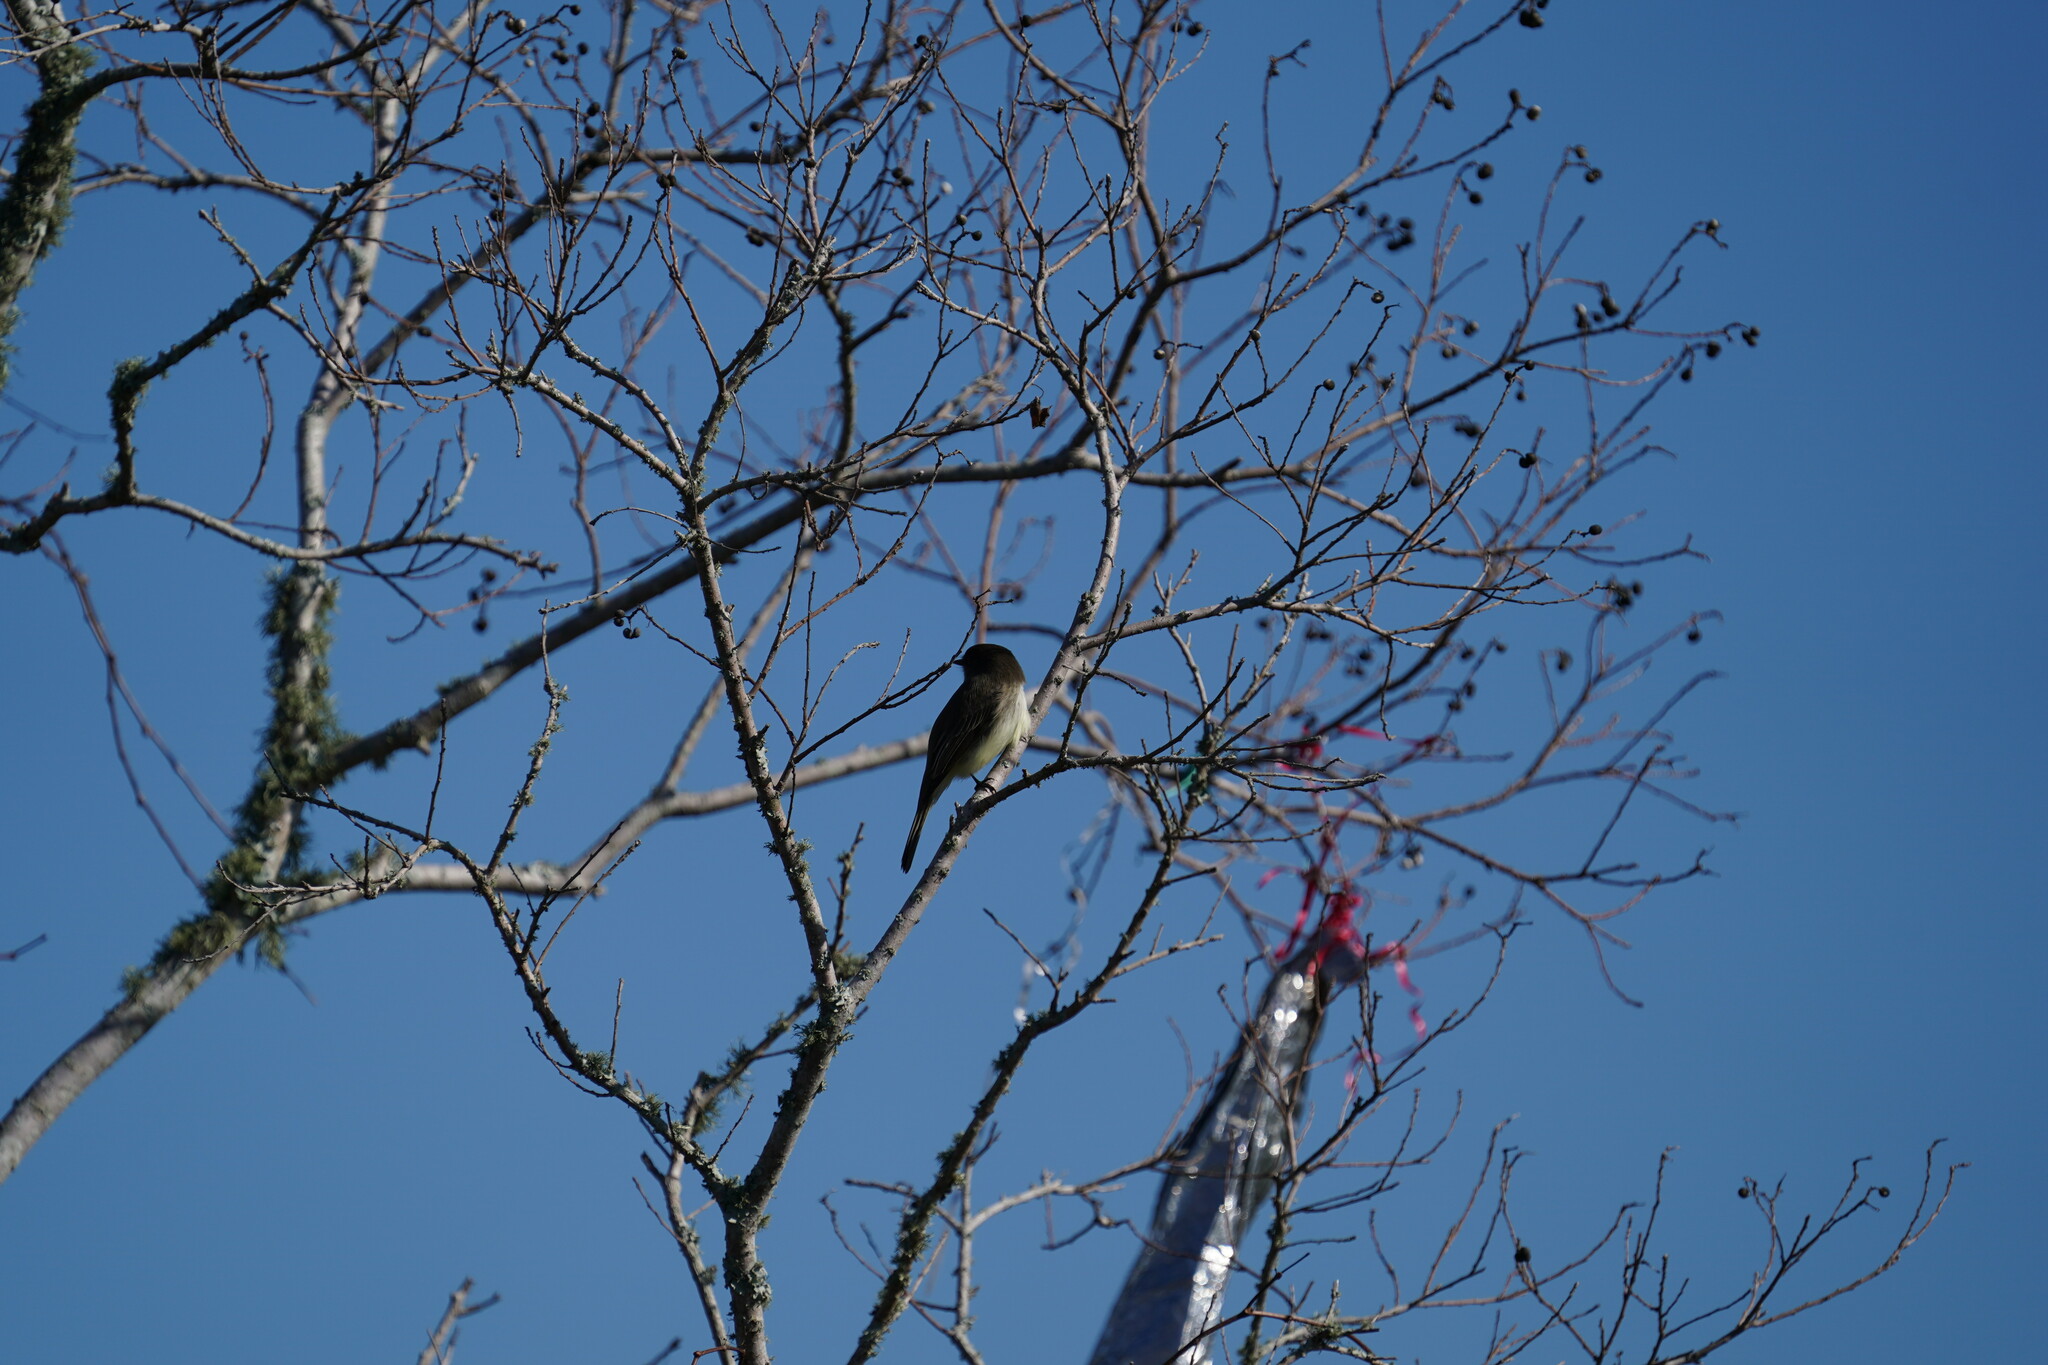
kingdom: Animalia
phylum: Chordata
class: Aves
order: Passeriformes
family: Tyrannidae
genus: Sayornis
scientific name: Sayornis phoebe
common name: Eastern phoebe
